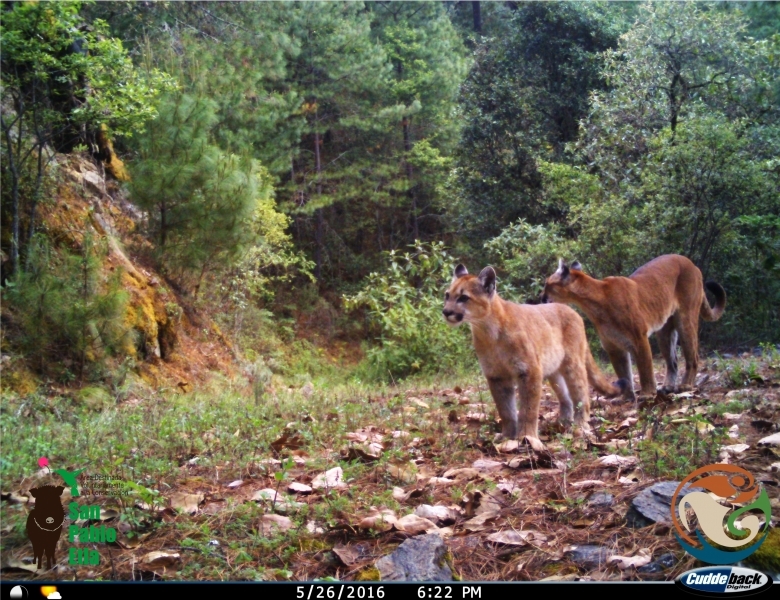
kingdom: Animalia
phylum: Chordata
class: Mammalia
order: Carnivora
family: Felidae
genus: Puma
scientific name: Puma concolor
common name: Puma
